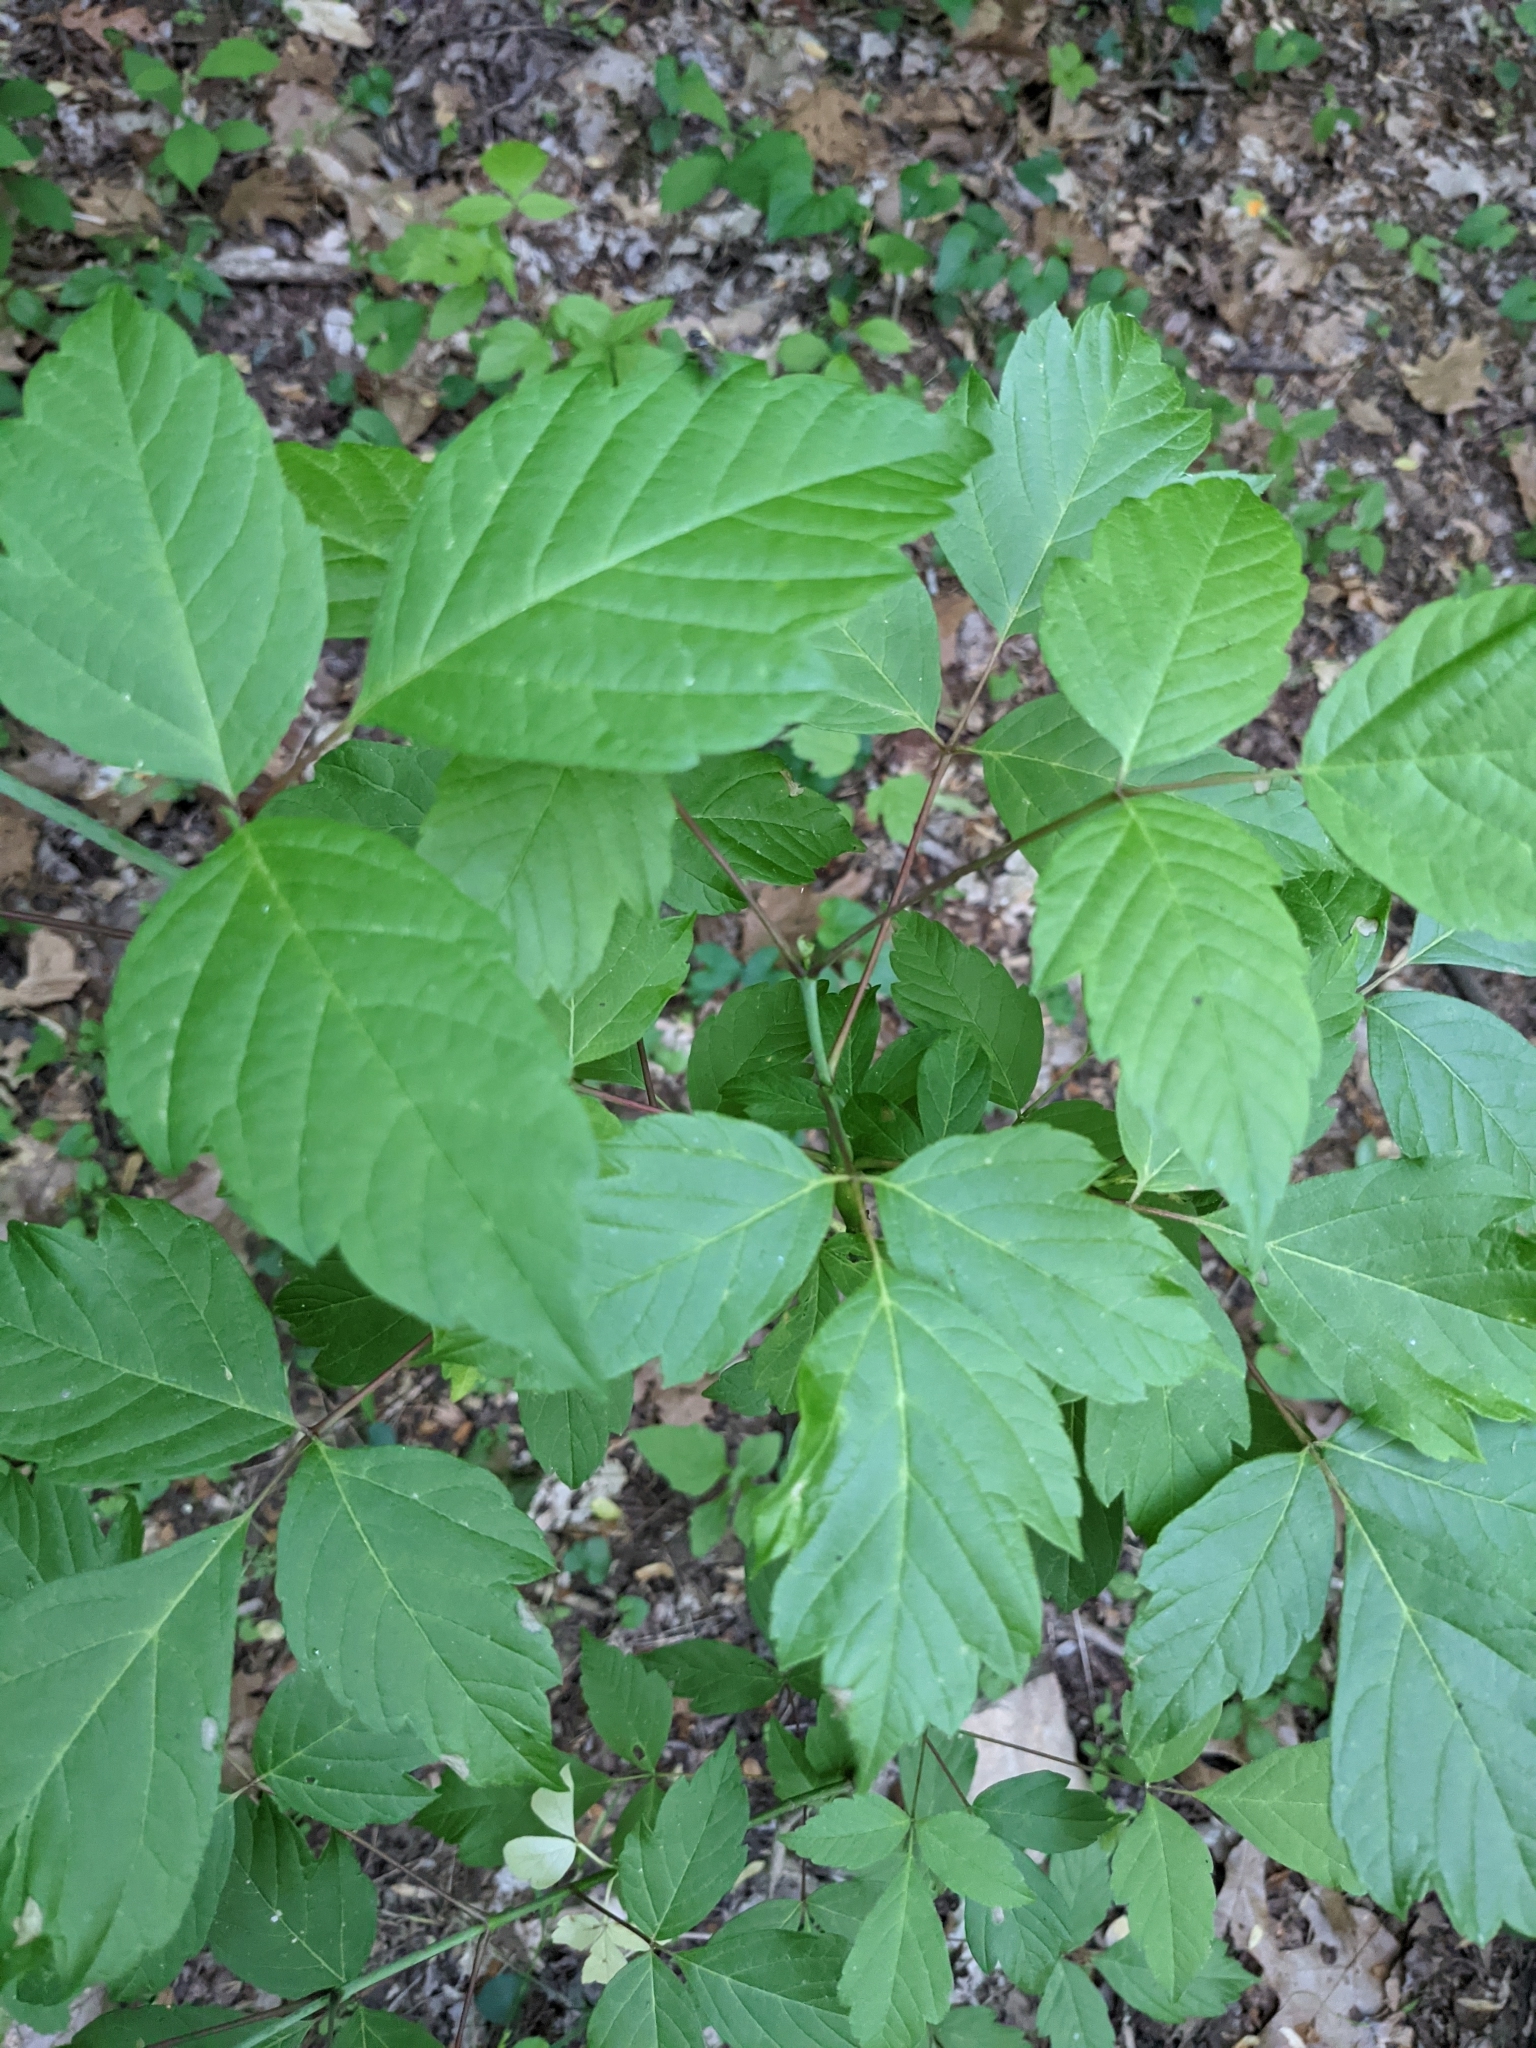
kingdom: Plantae
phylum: Tracheophyta
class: Magnoliopsida
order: Sapindales
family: Sapindaceae
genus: Acer
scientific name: Acer negundo
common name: Ashleaf maple
